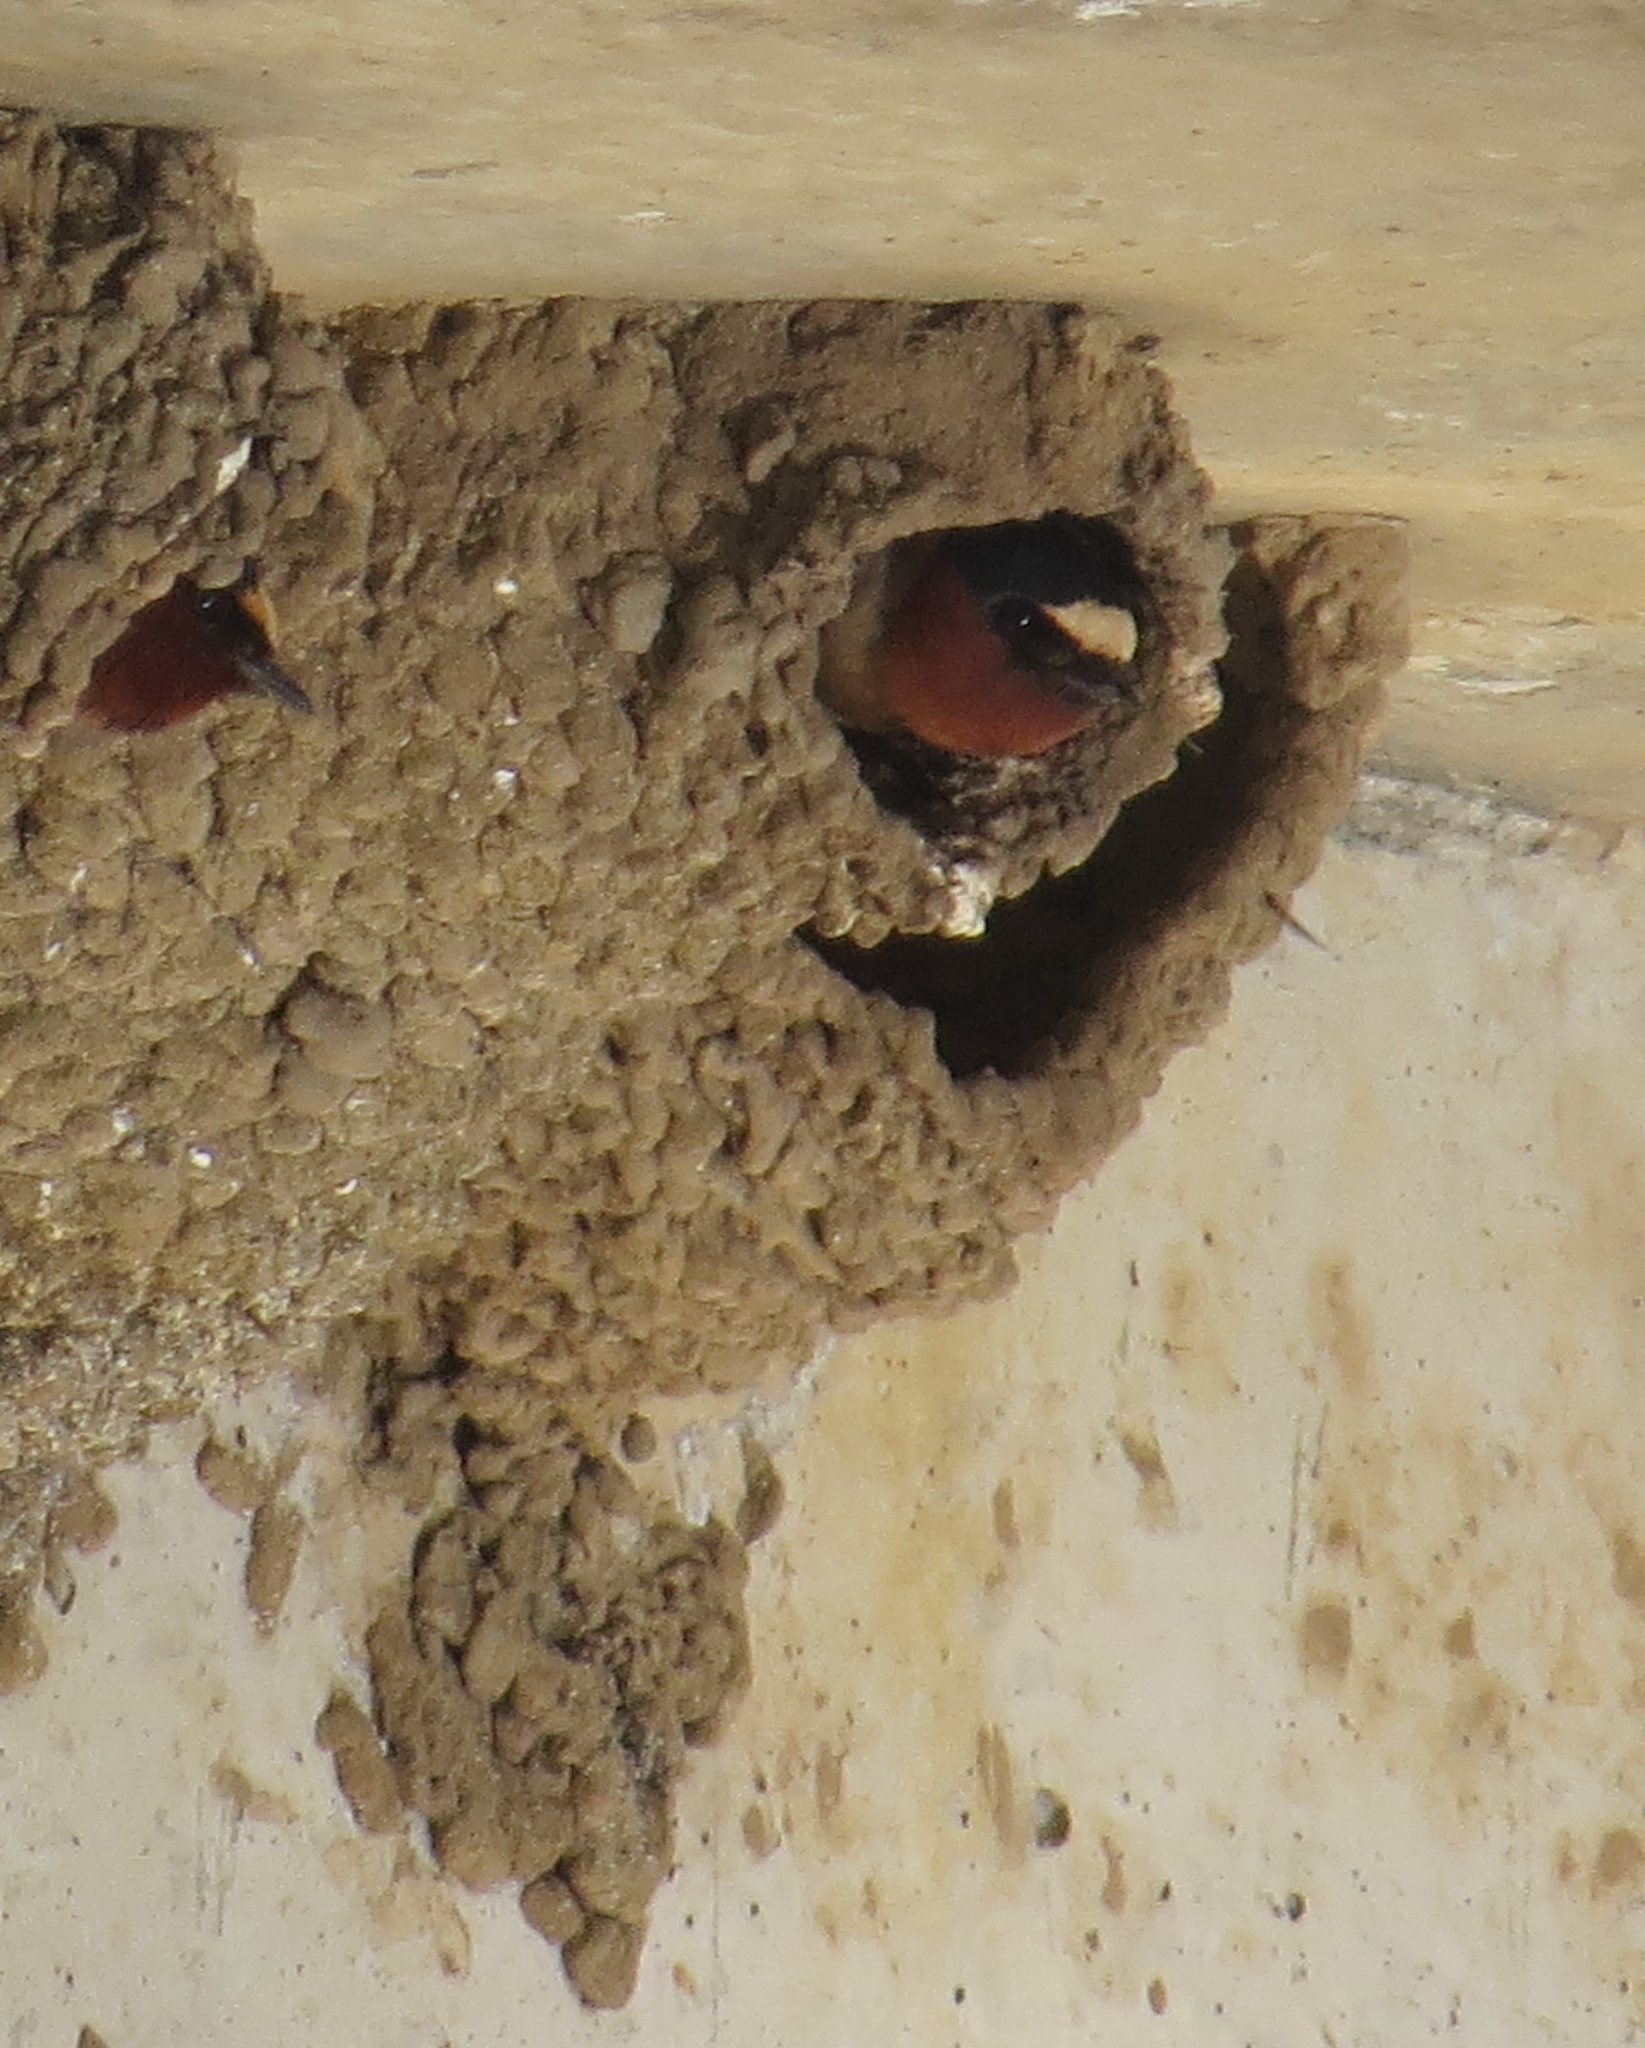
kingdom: Animalia
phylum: Chordata
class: Aves
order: Passeriformes
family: Hirundinidae
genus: Petrochelidon
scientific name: Petrochelidon pyrrhonota
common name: American cliff swallow
